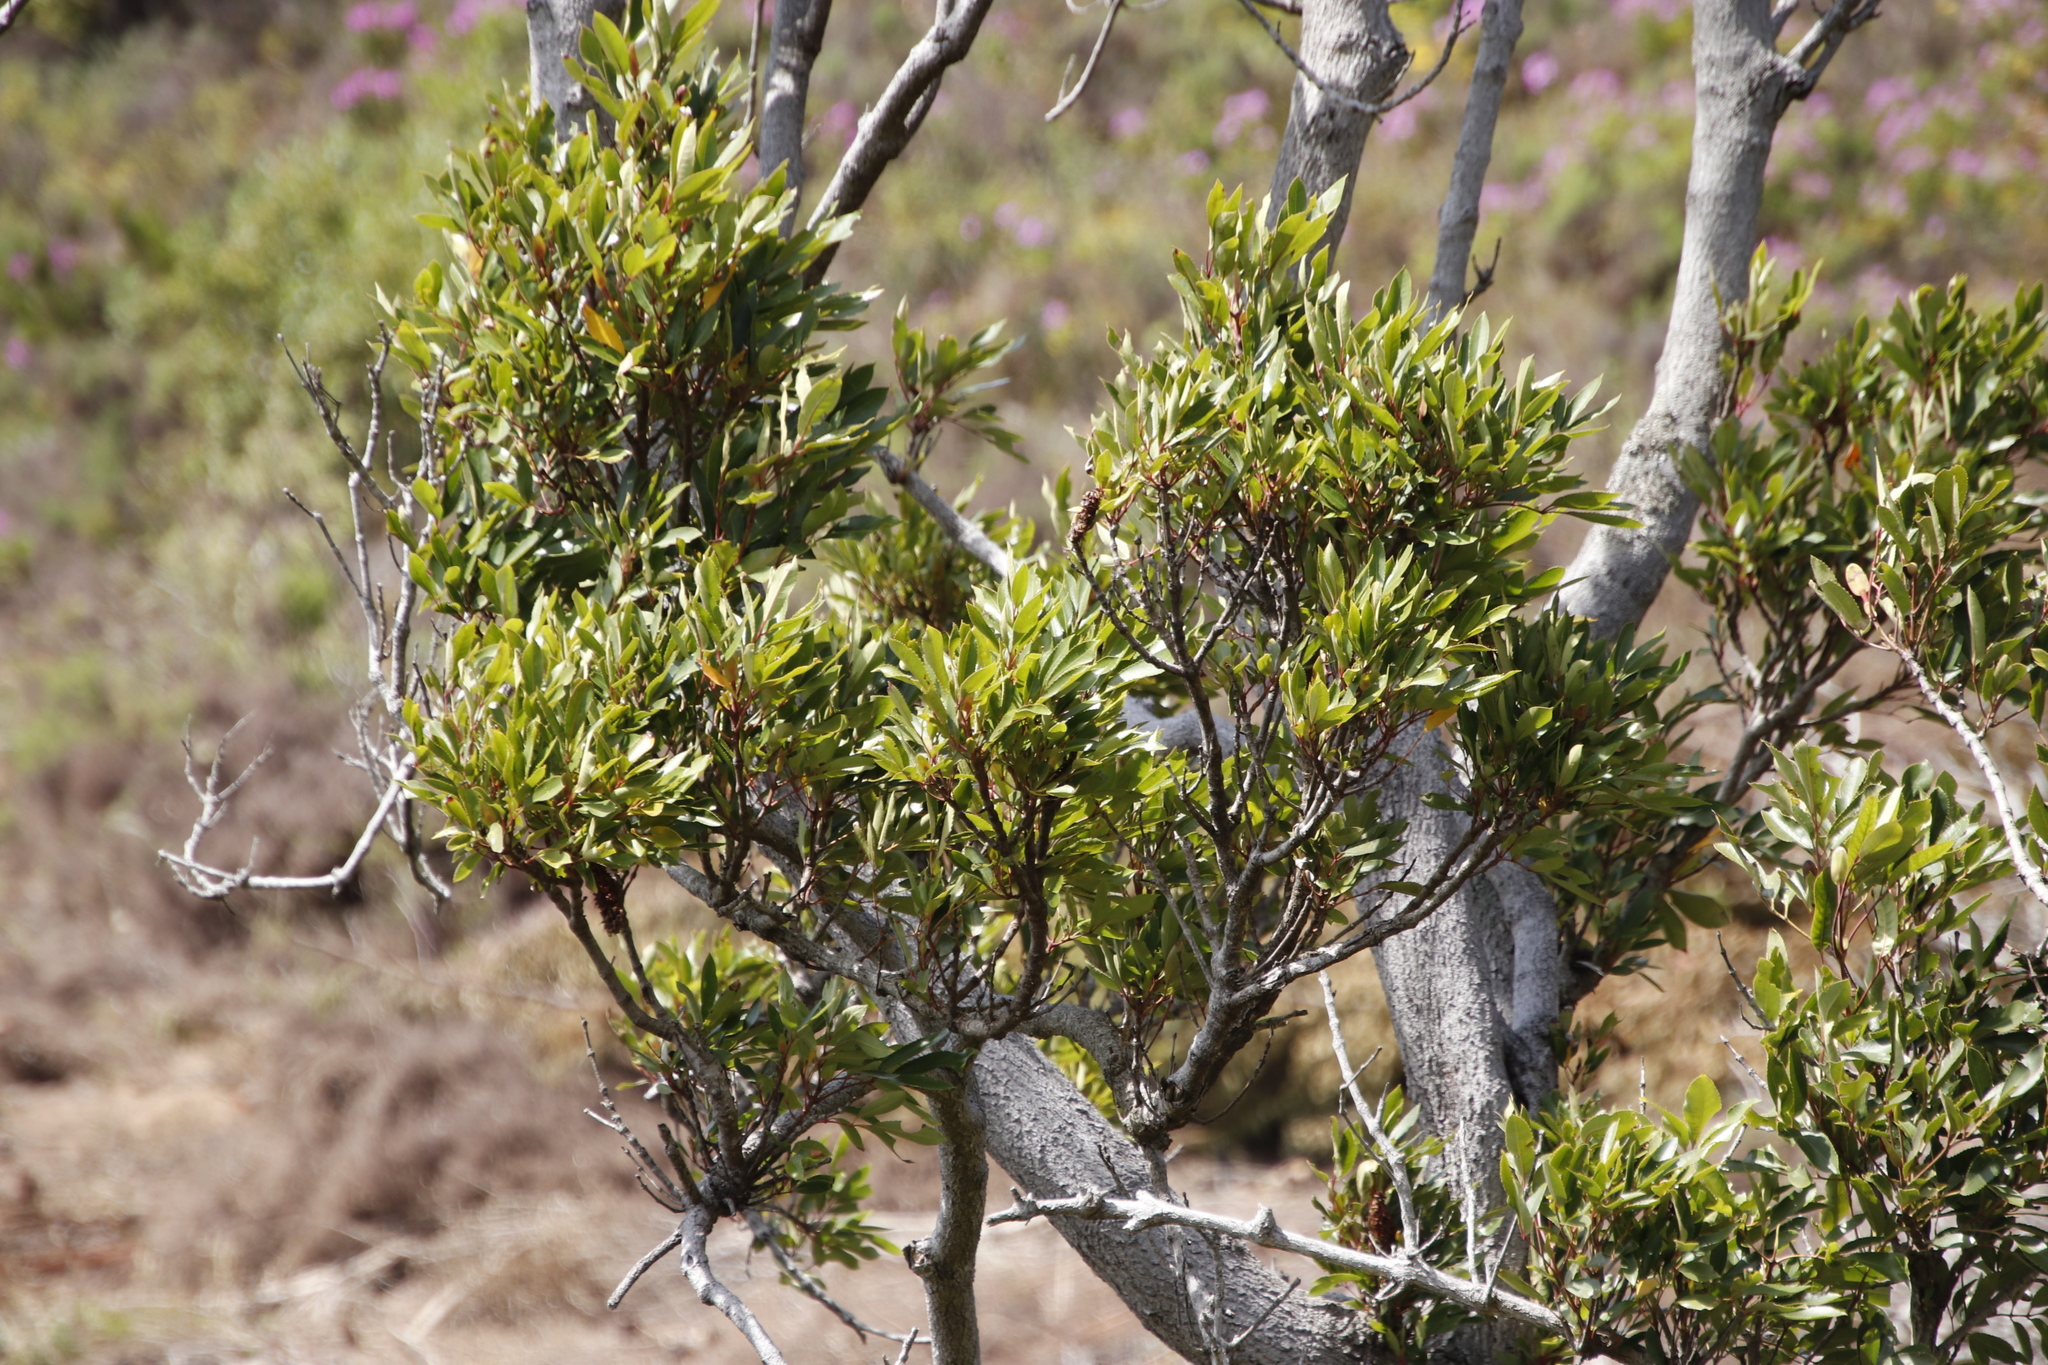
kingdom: Plantae
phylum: Tracheophyta
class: Magnoliopsida
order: Oxalidales
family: Cunoniaceae
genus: Cunonia
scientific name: Cunonia capensis
